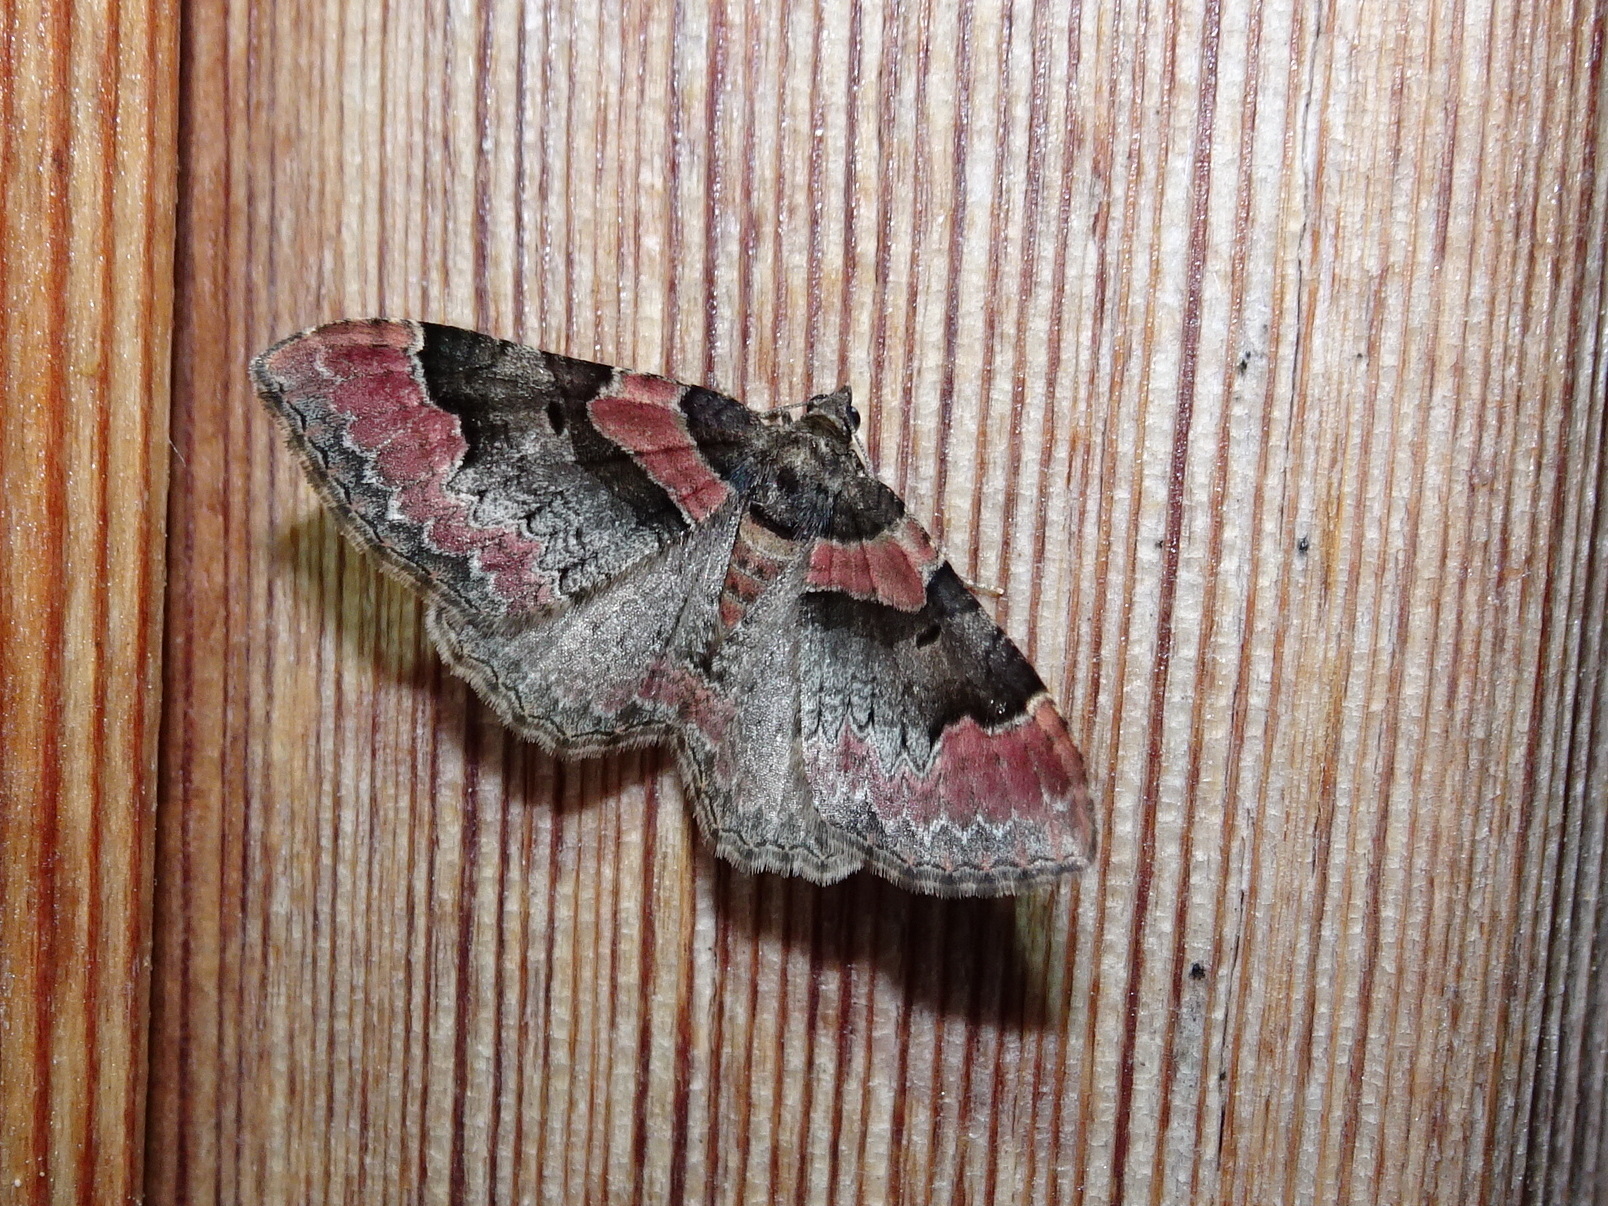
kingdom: Animalia
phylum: Arthropoda
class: Insecta
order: Lepidoptera
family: Geometridae
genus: Catarhoe
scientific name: Catarhoe rubidata
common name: Ruddy carpet
